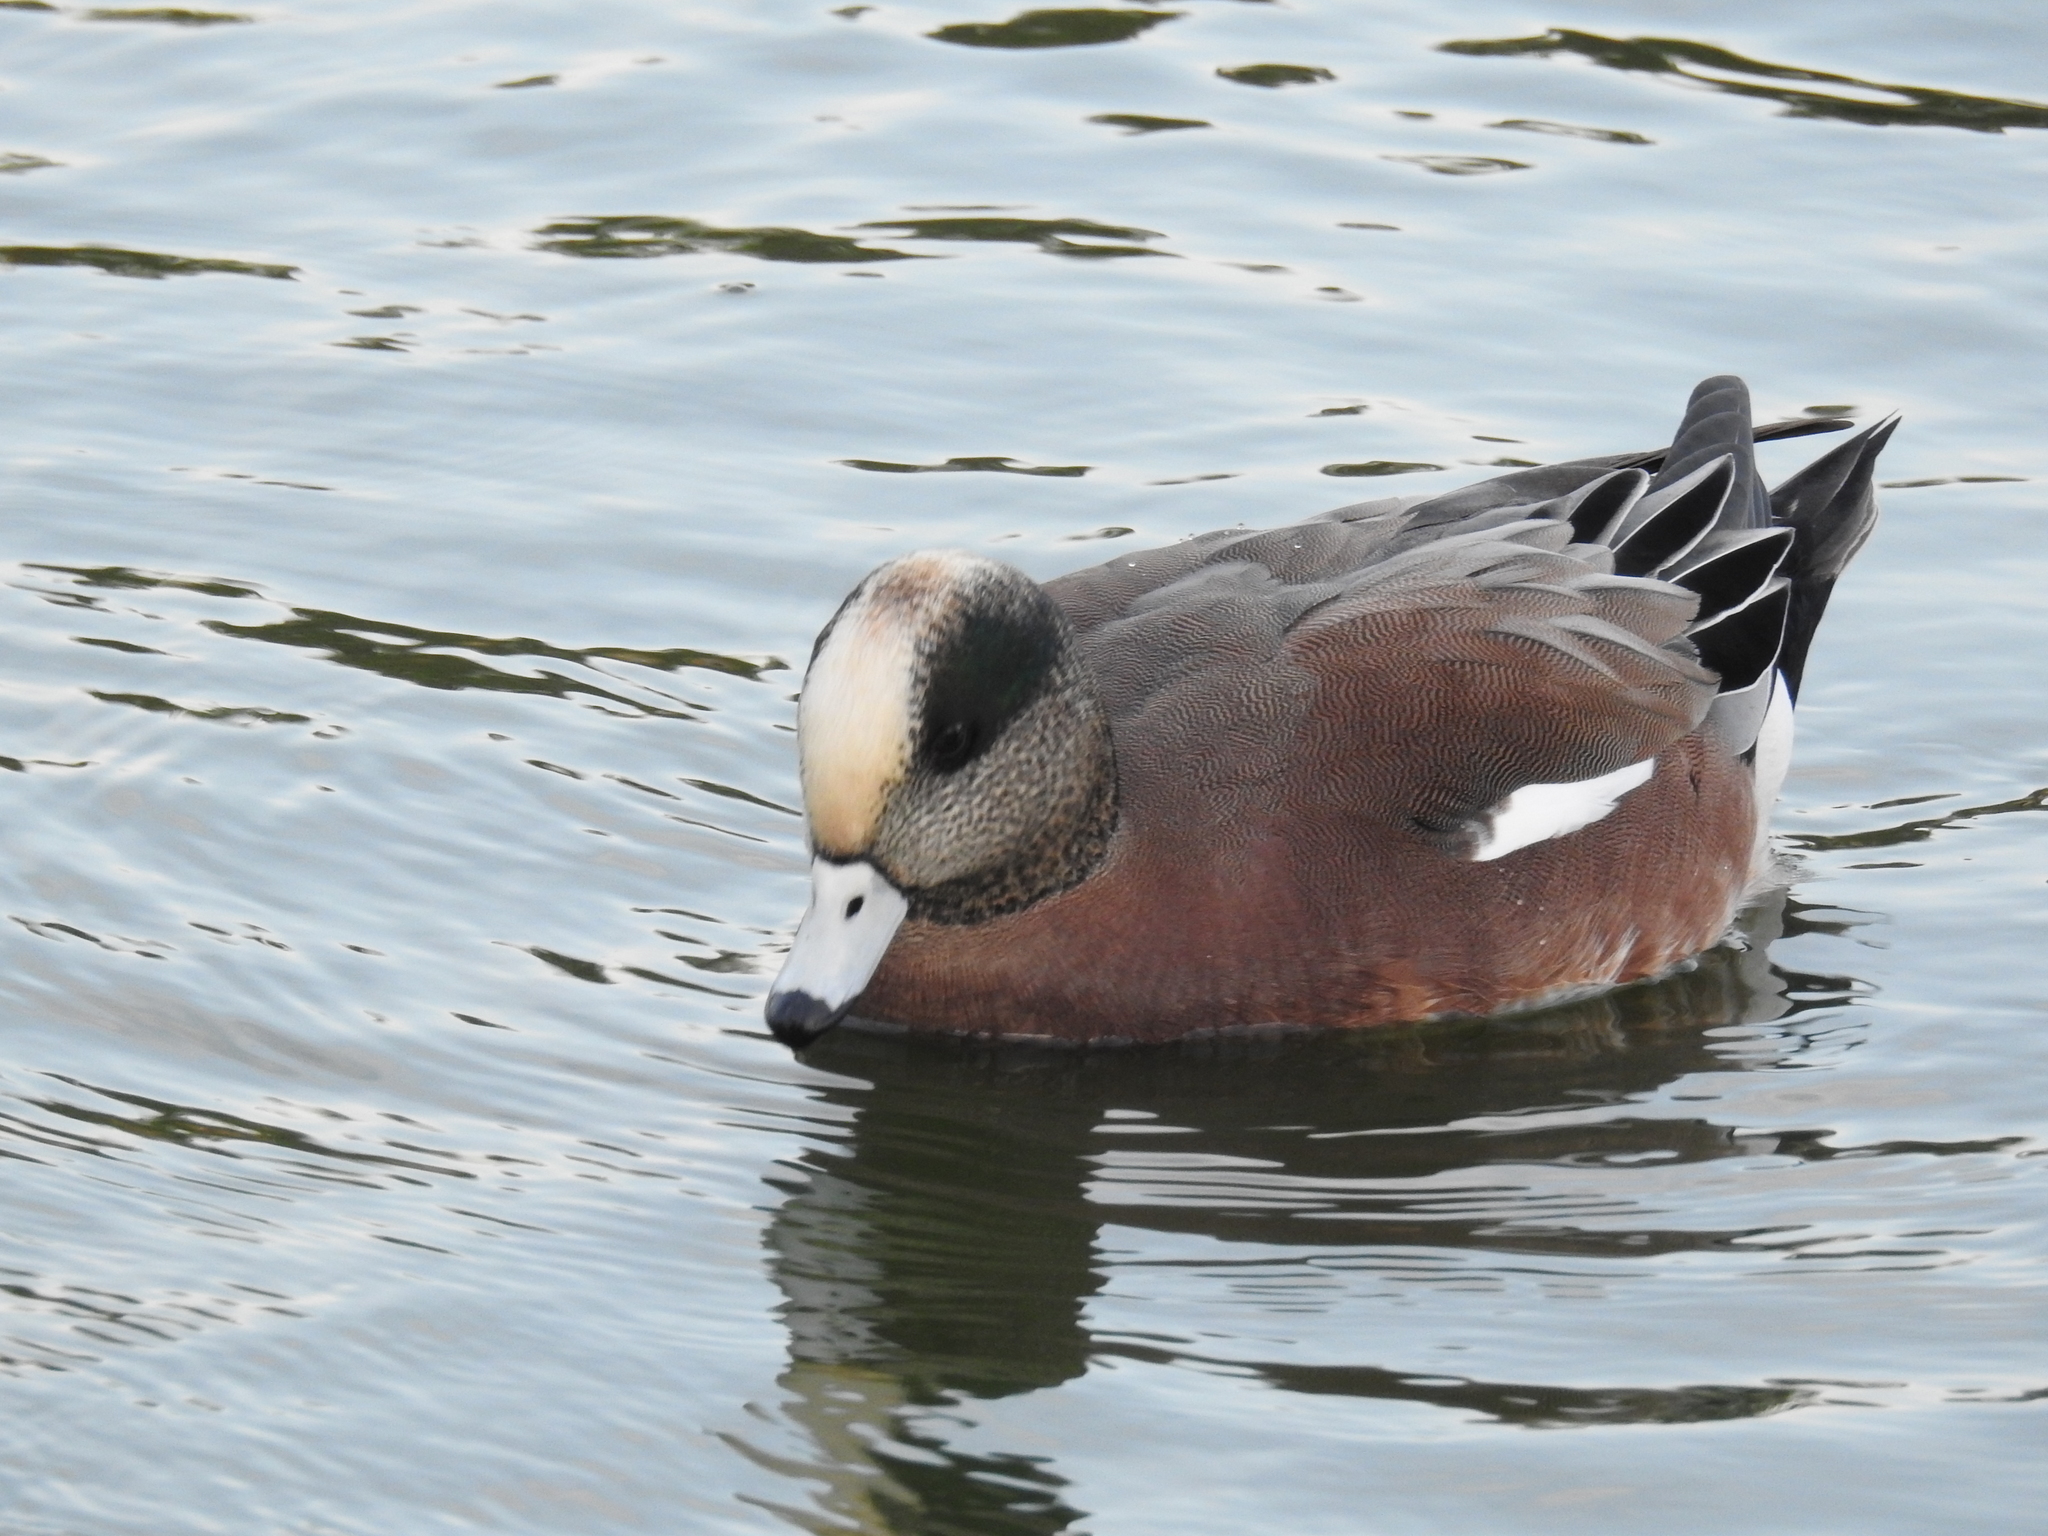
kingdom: Animalia
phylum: Chordata
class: Aves
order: Anseriformes
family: Anatidae
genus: Mareca
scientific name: Mareca americana
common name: American wigeon
